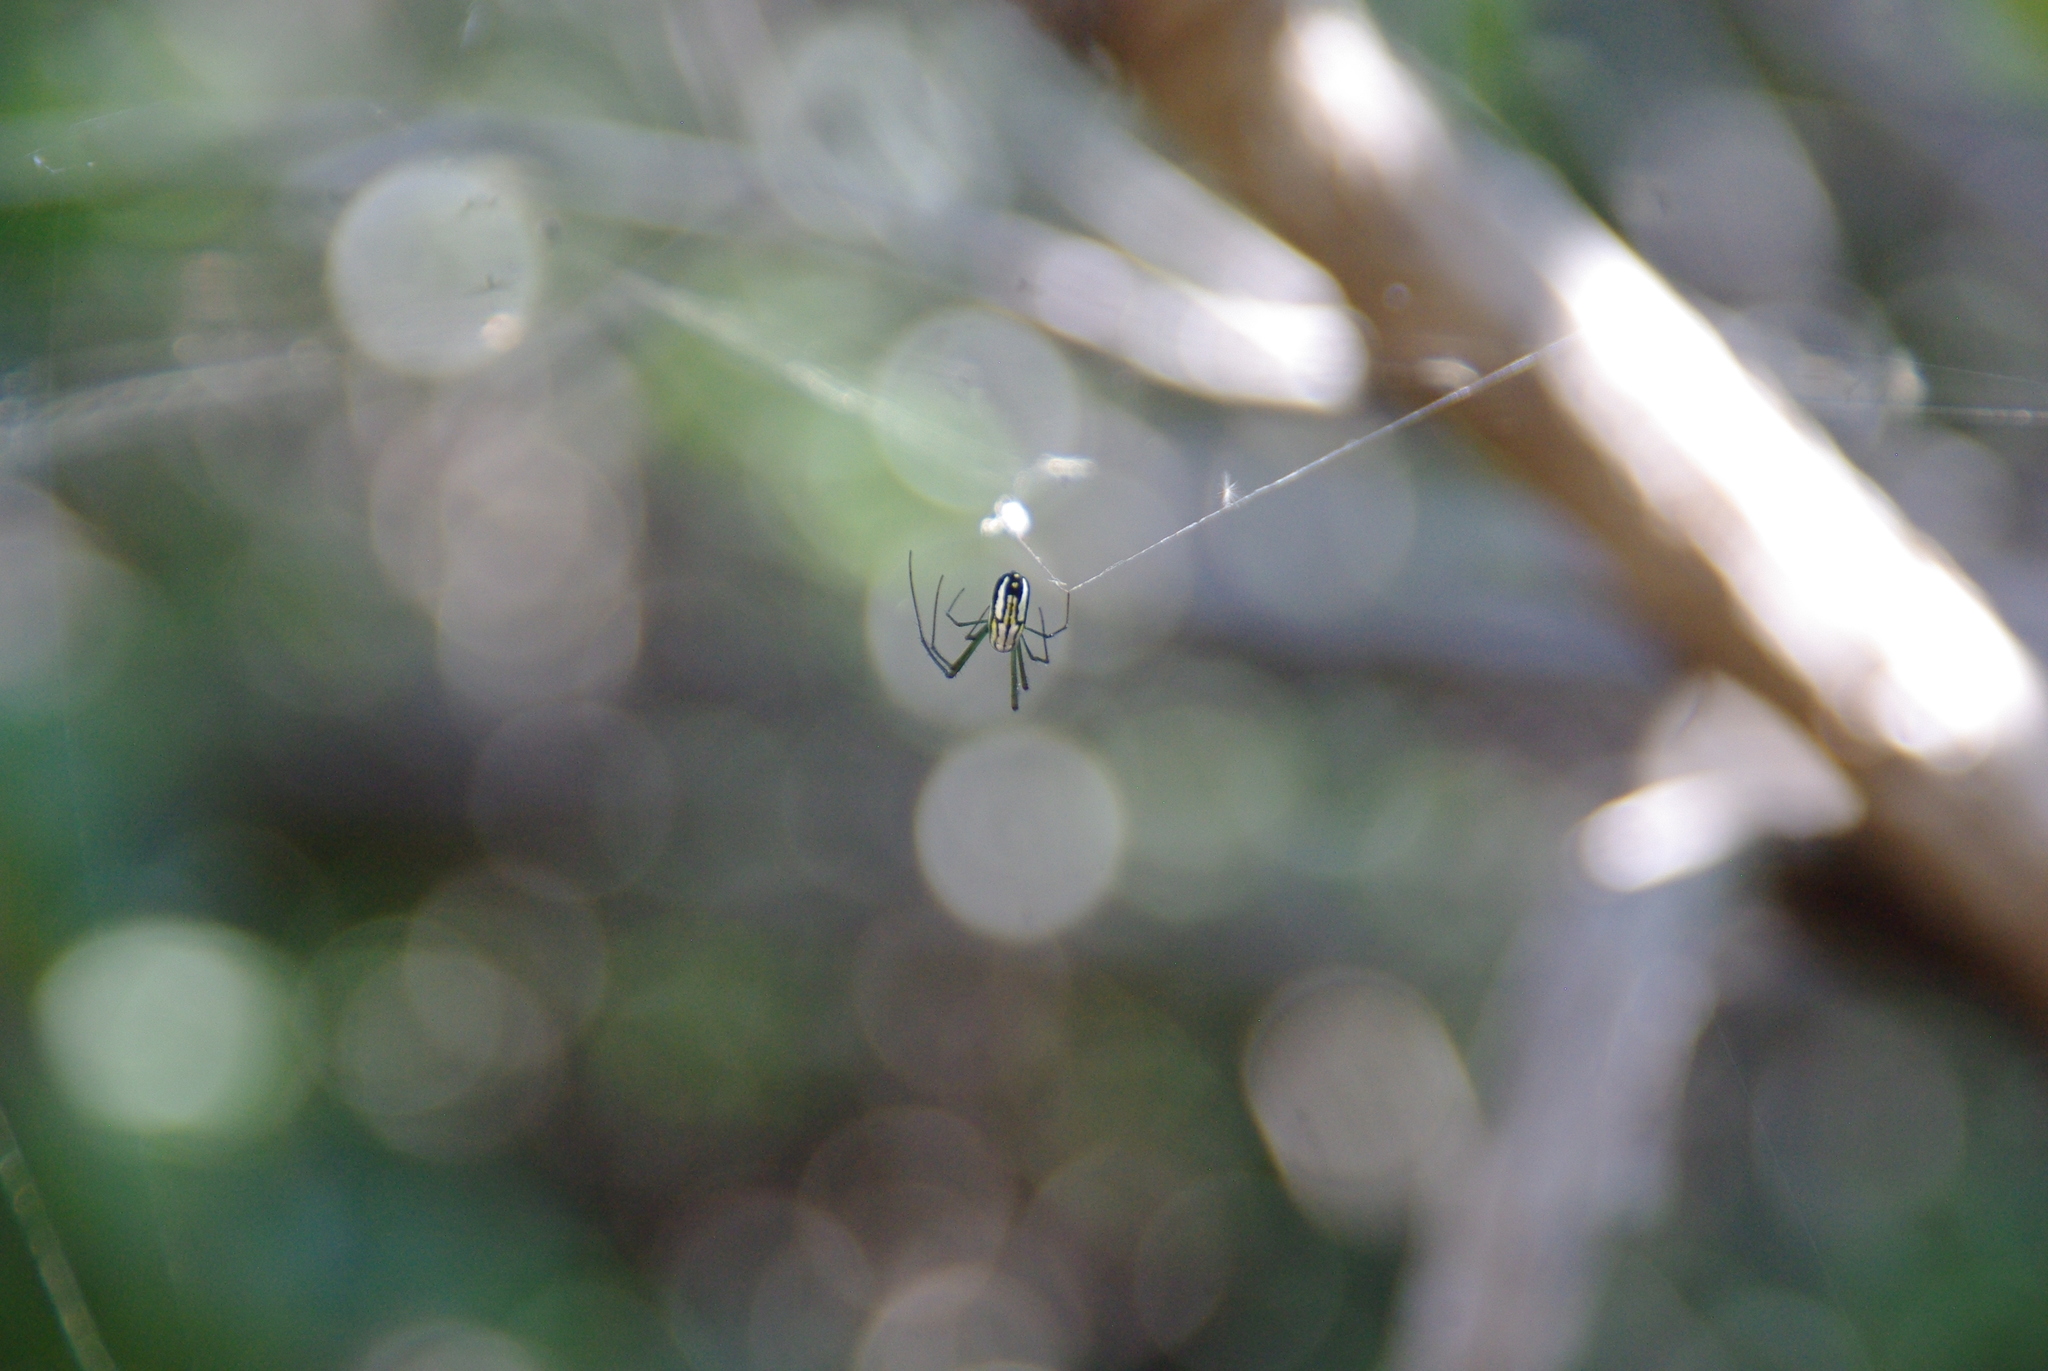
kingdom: Animalia
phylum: Arthropoda
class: Arachnida
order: Araneae
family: Tetragnathidae
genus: Leucauge
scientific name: Leucauge argyra
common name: Longjawed orb weavers
